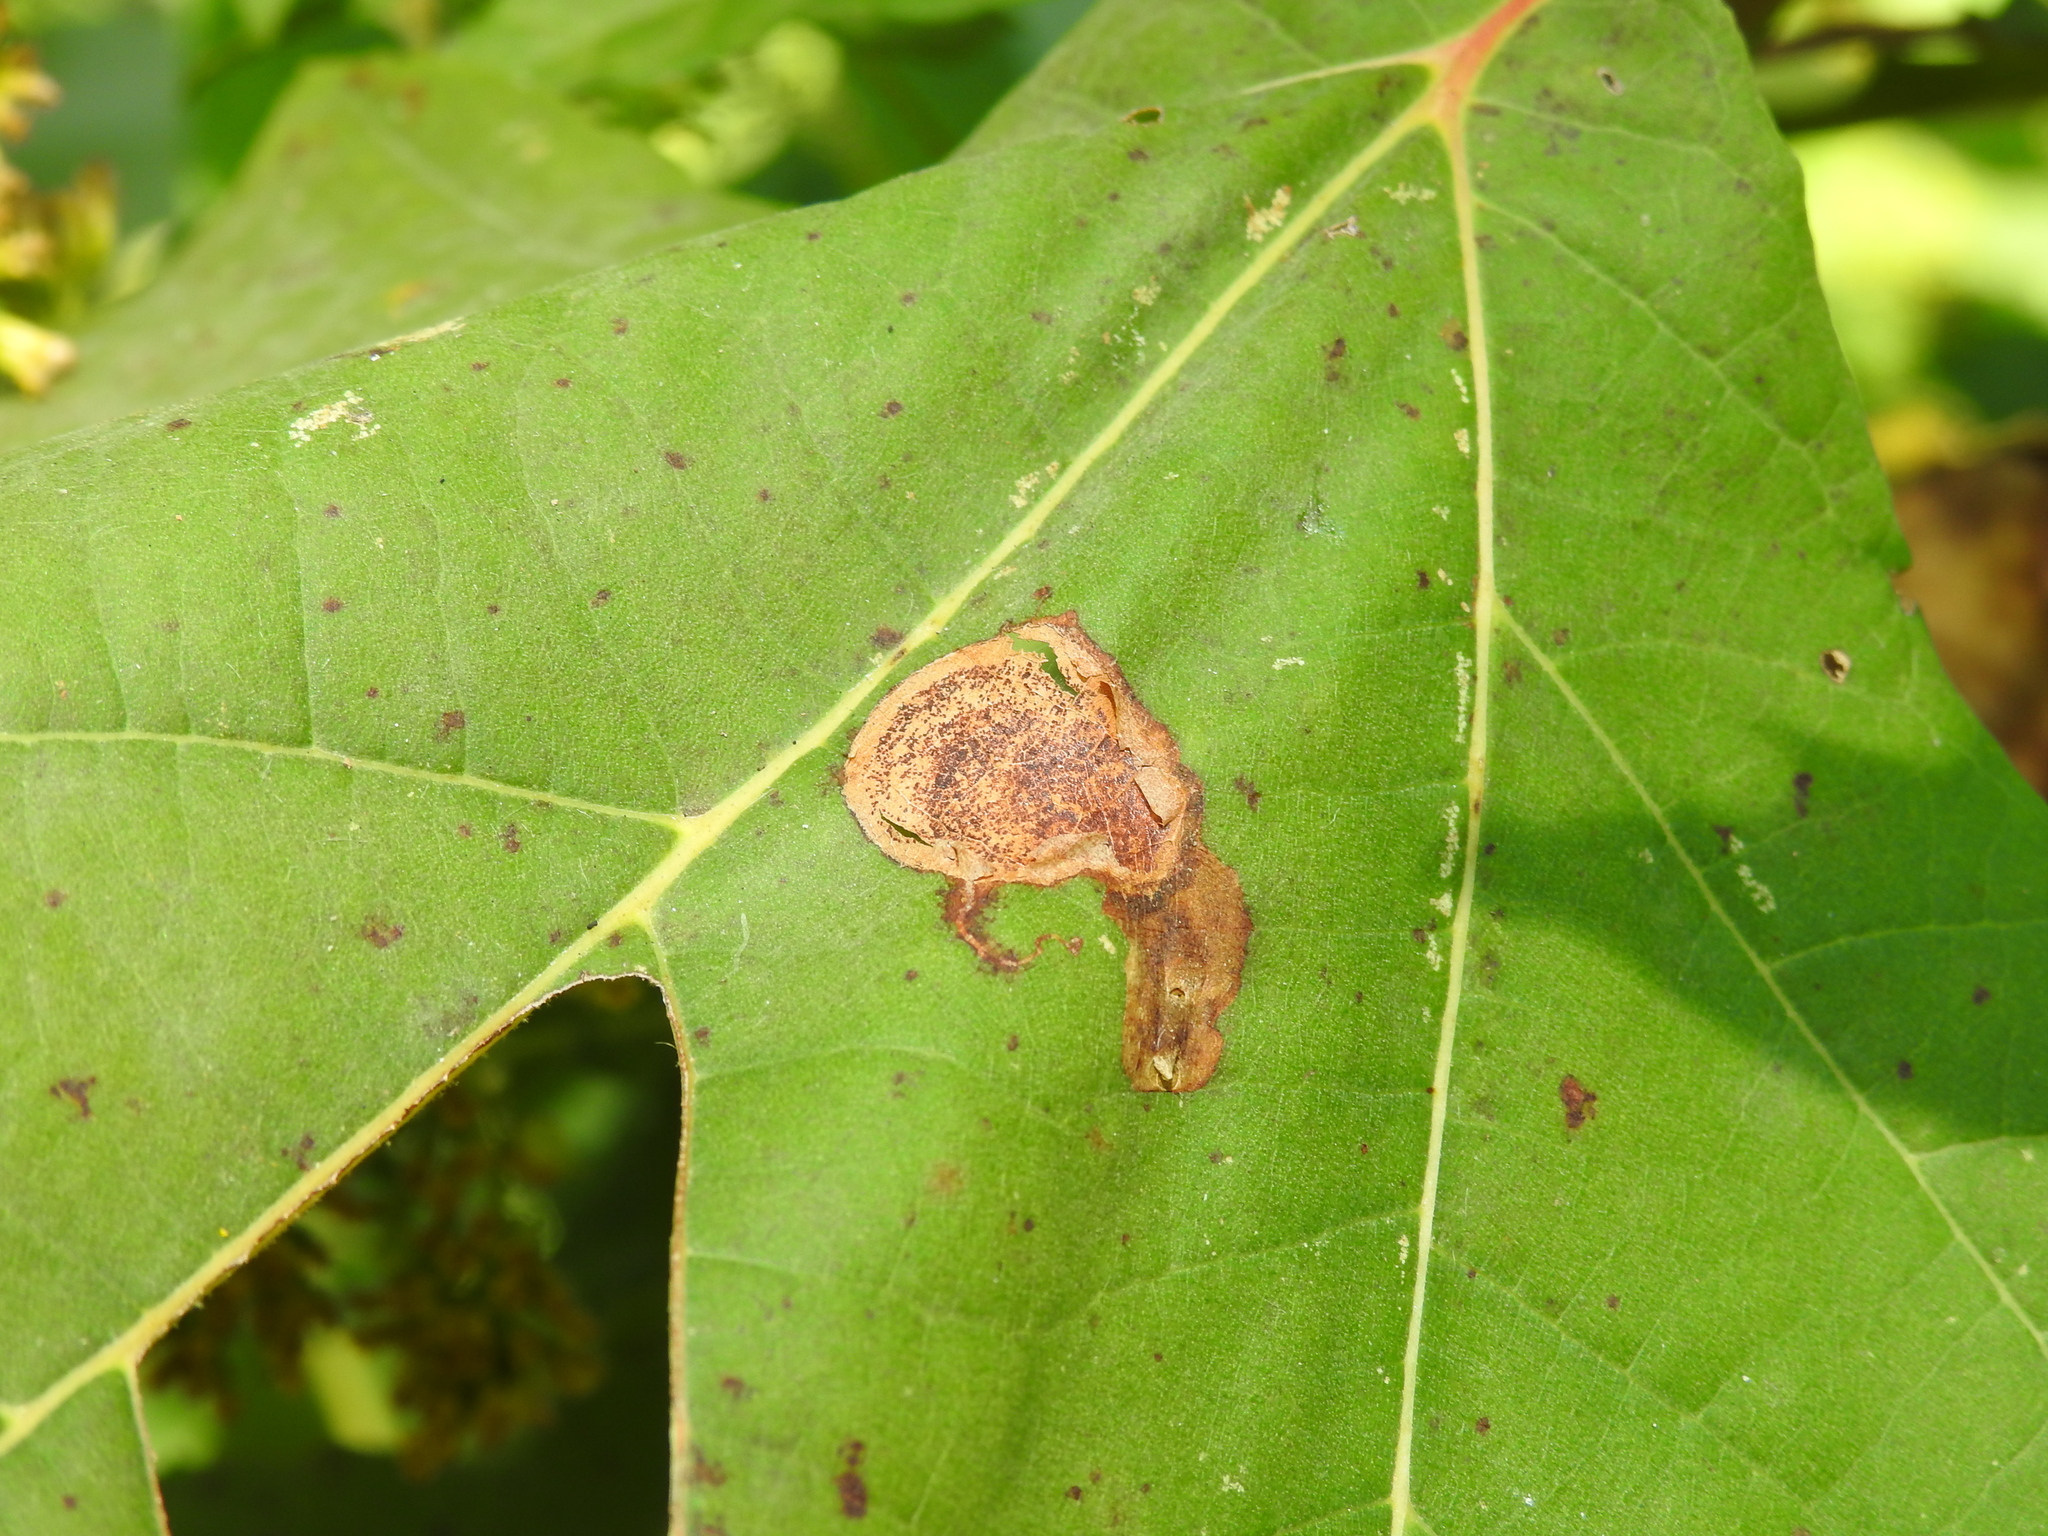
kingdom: Animalia
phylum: Arthropoda
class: Insecta
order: Lepidoptera
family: Nepticulidae
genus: Ectoedemia
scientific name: Ectoedemia platanella
